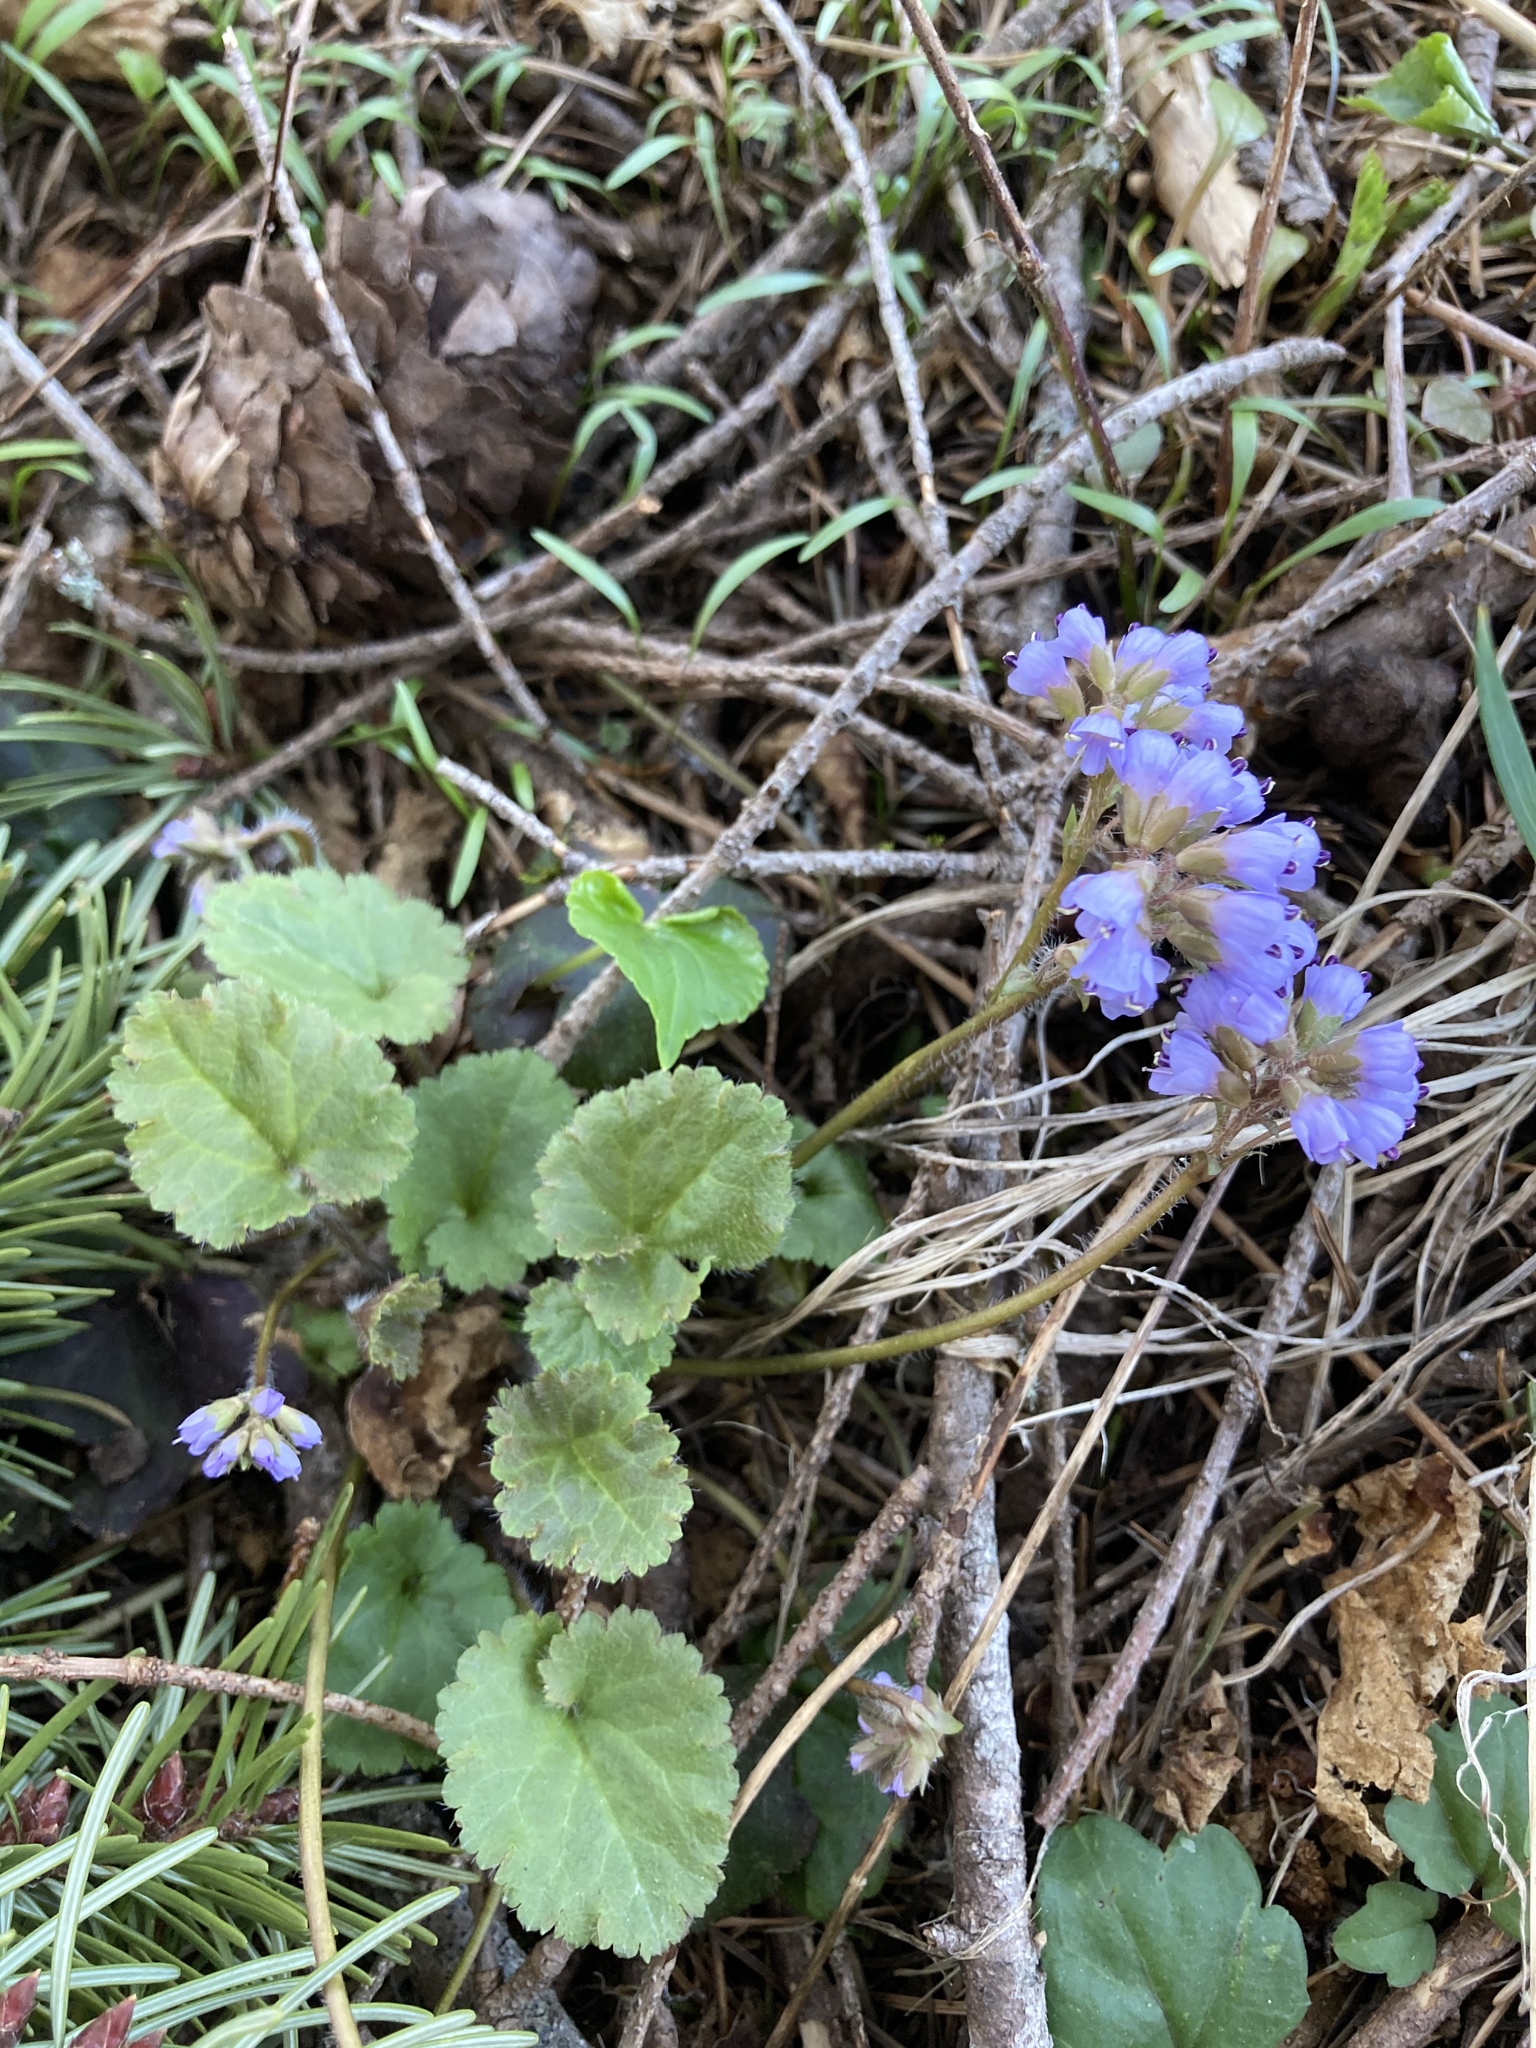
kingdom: Plantae
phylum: Tracheophyta
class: Magnoliopsida
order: Lamiales
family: Plantaginaceae
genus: Synthyris
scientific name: Synthyris reniformis
